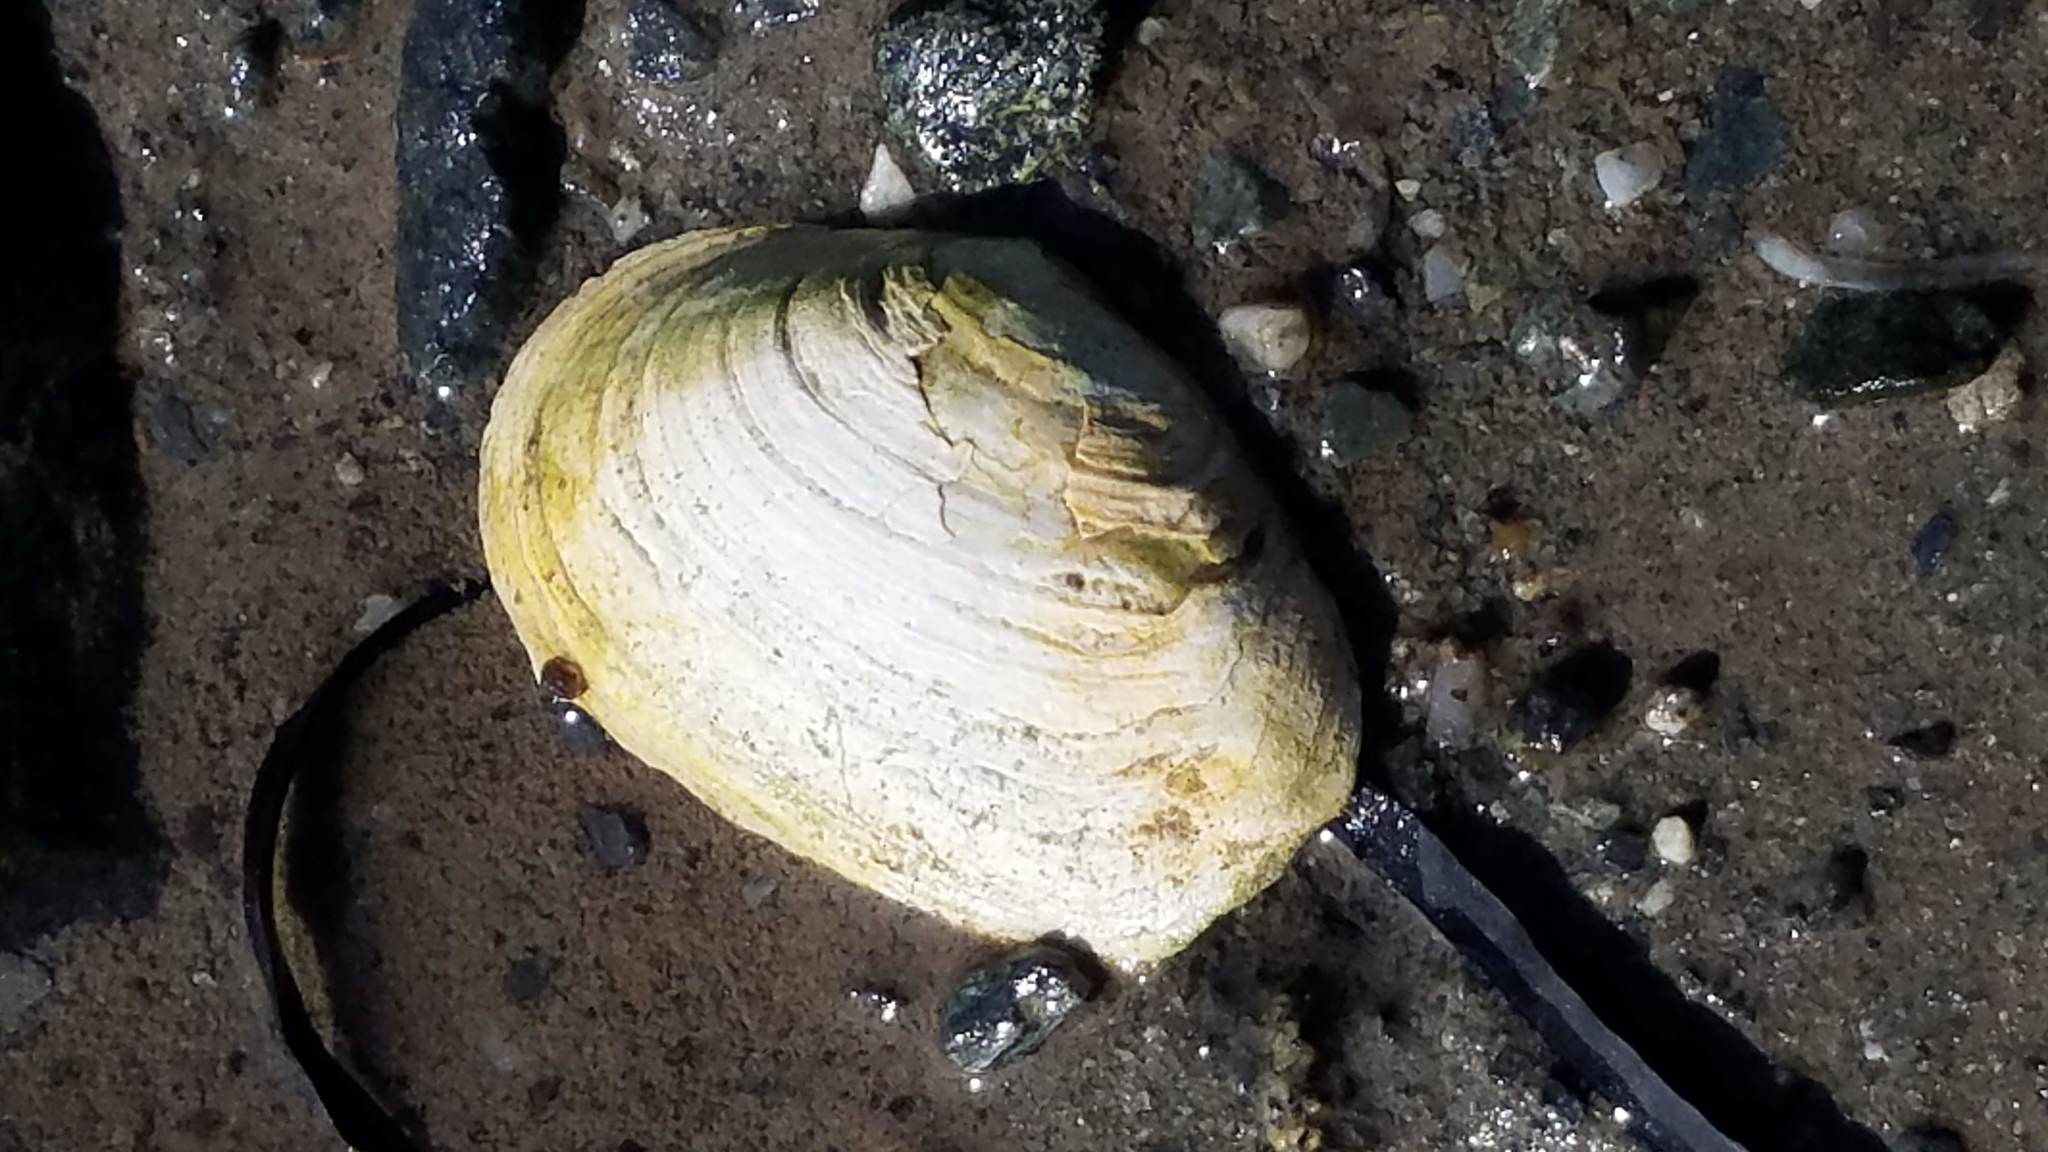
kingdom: Animalia
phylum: Mollusca
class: Bivalvia
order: Myida
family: Myidae
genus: Mya
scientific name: Mya arenaria
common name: Soft-shelled clam
